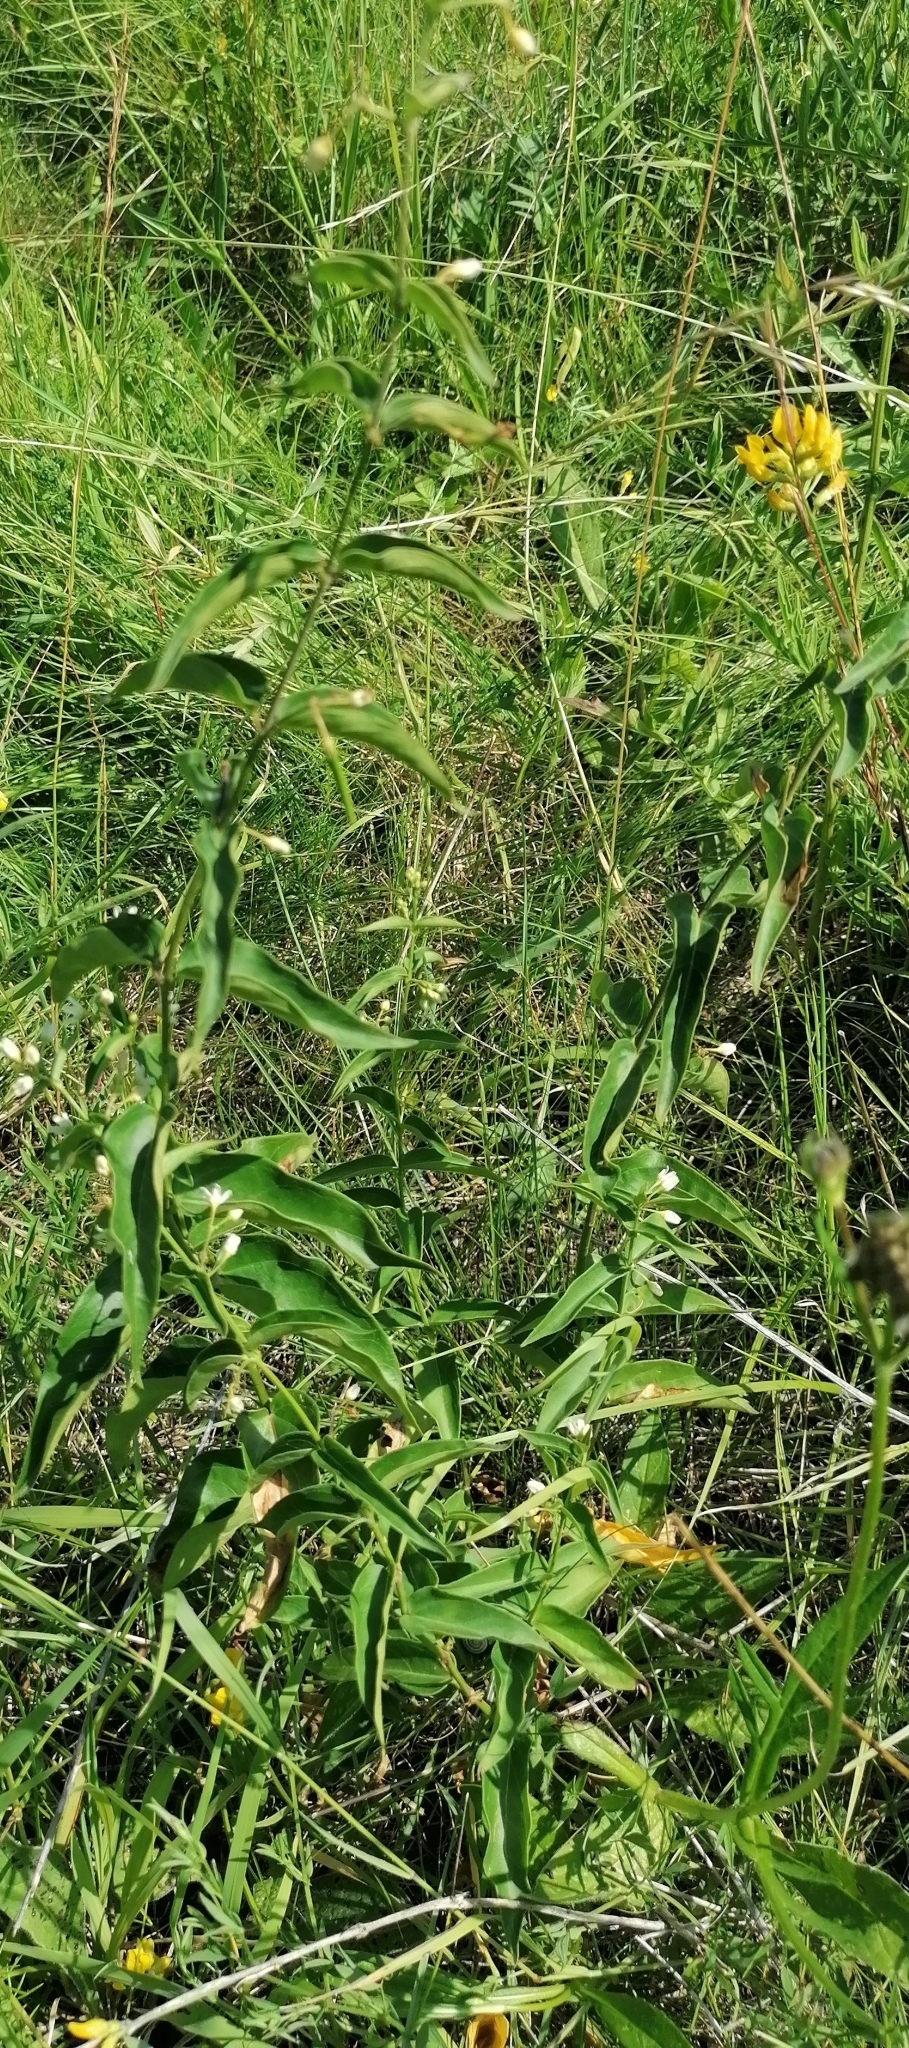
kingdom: Plantae
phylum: Tracheophyta
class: Magnoliopsida
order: Gentianales
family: Apocynaceae
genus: Vincetoxicum
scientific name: Vincetoxicum hirundinaria
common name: White swallowwort
